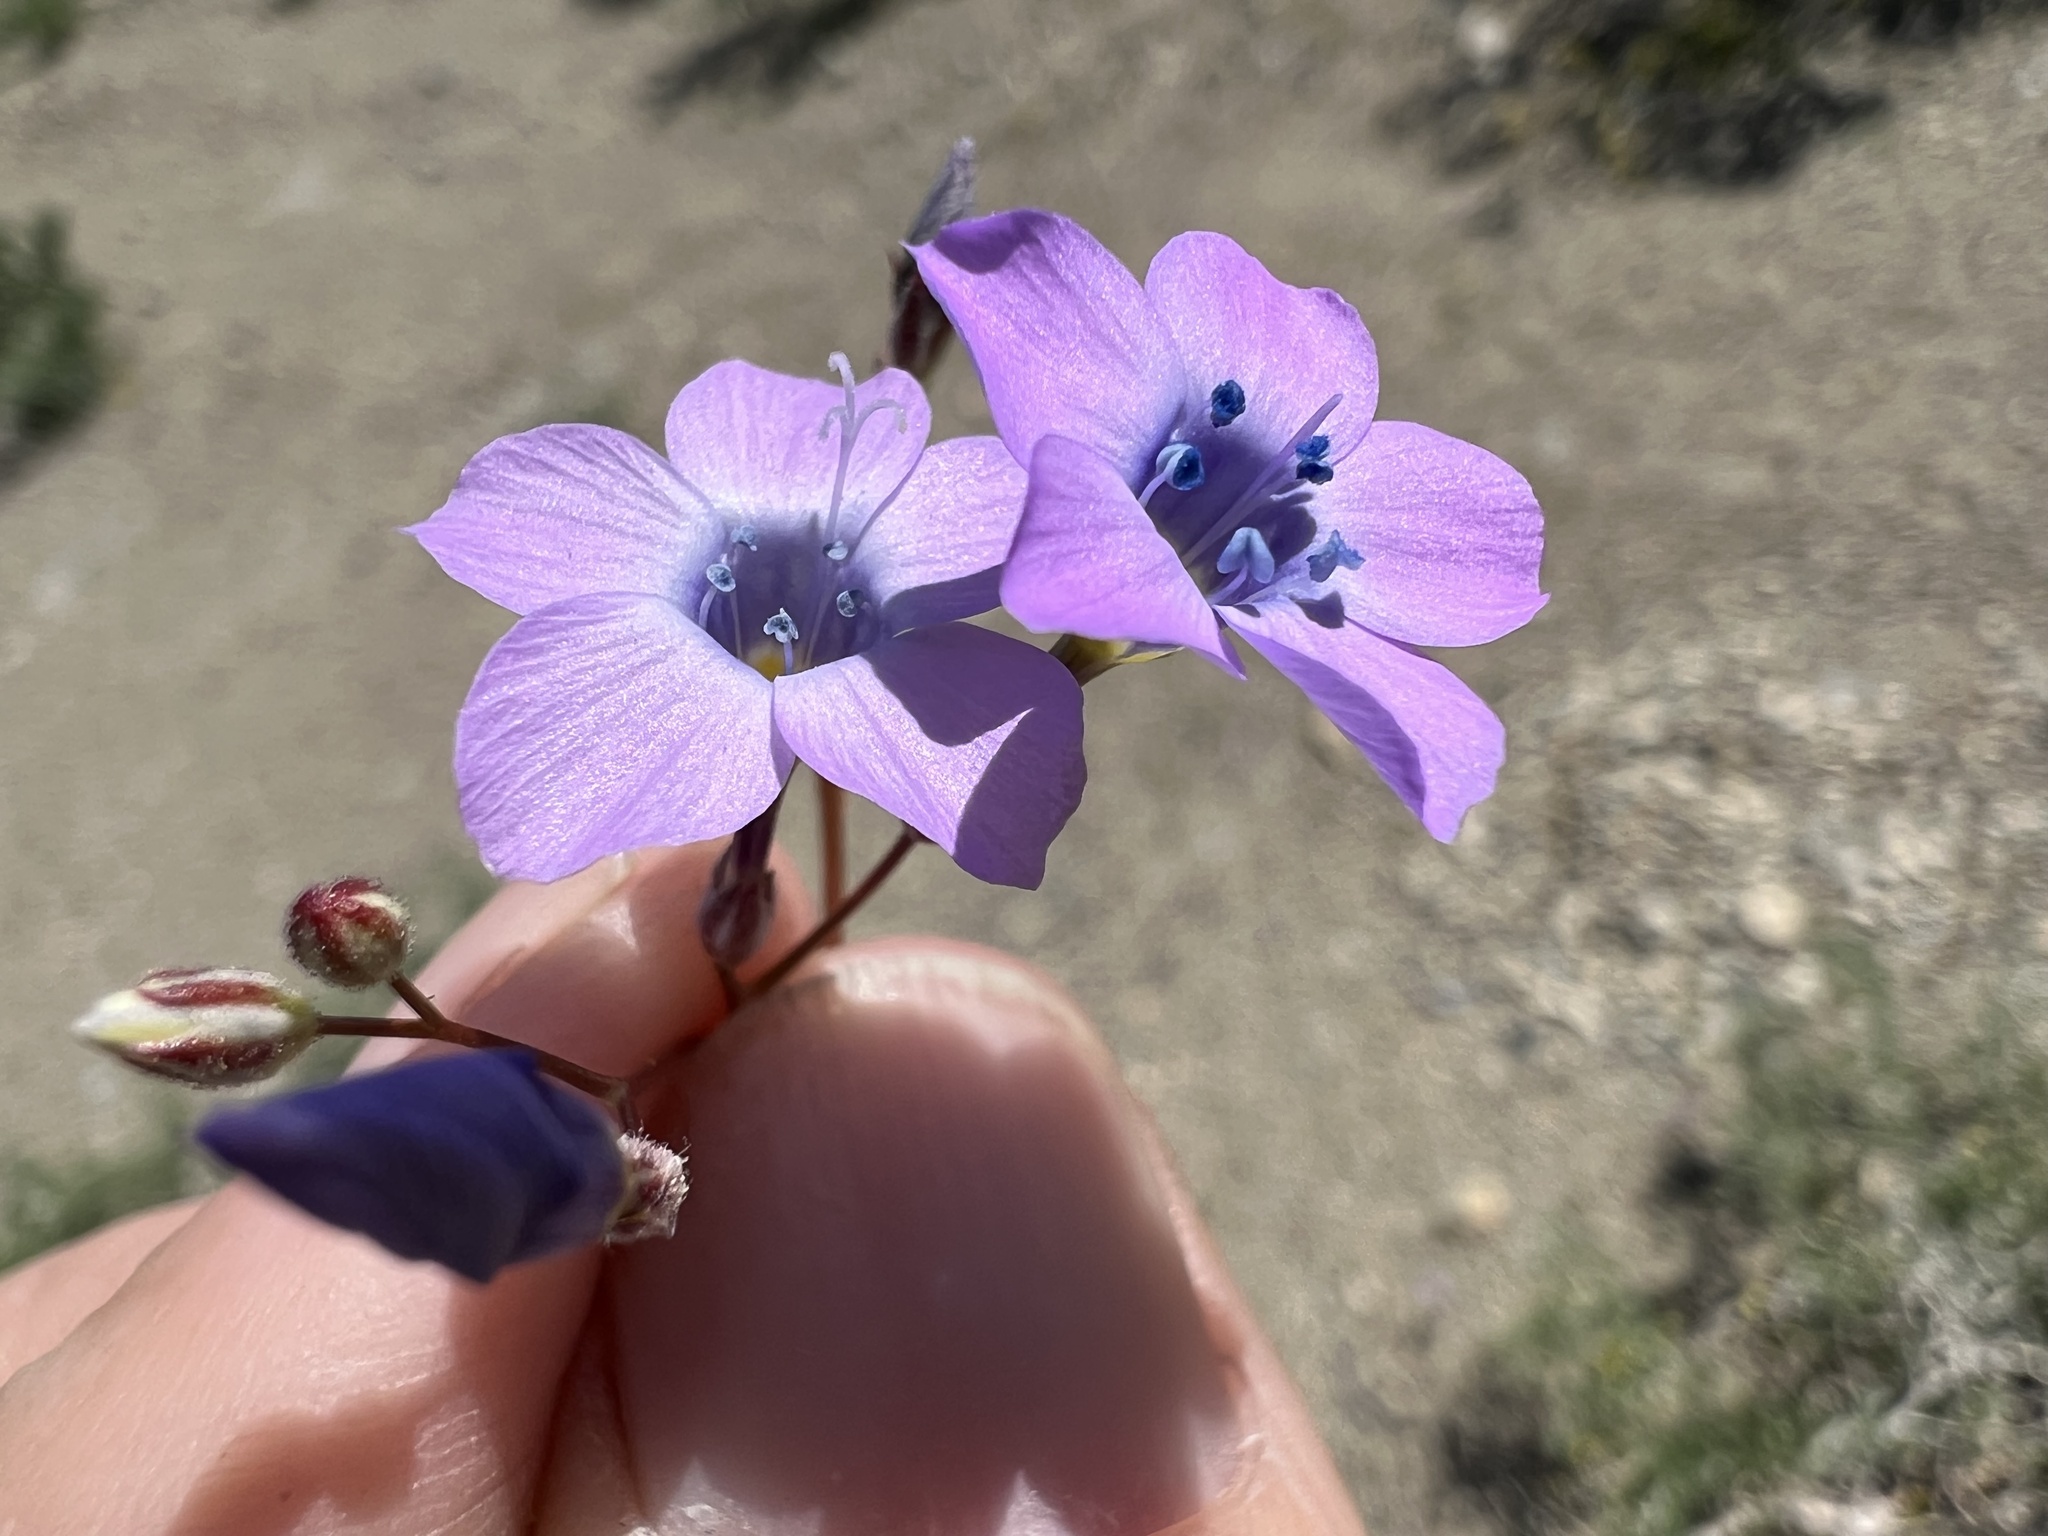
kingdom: Plantae
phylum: Tracheophyta
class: Magnoliopsida
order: Ericales
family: Polemoniaceae
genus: Gilia
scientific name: Gilia cana
